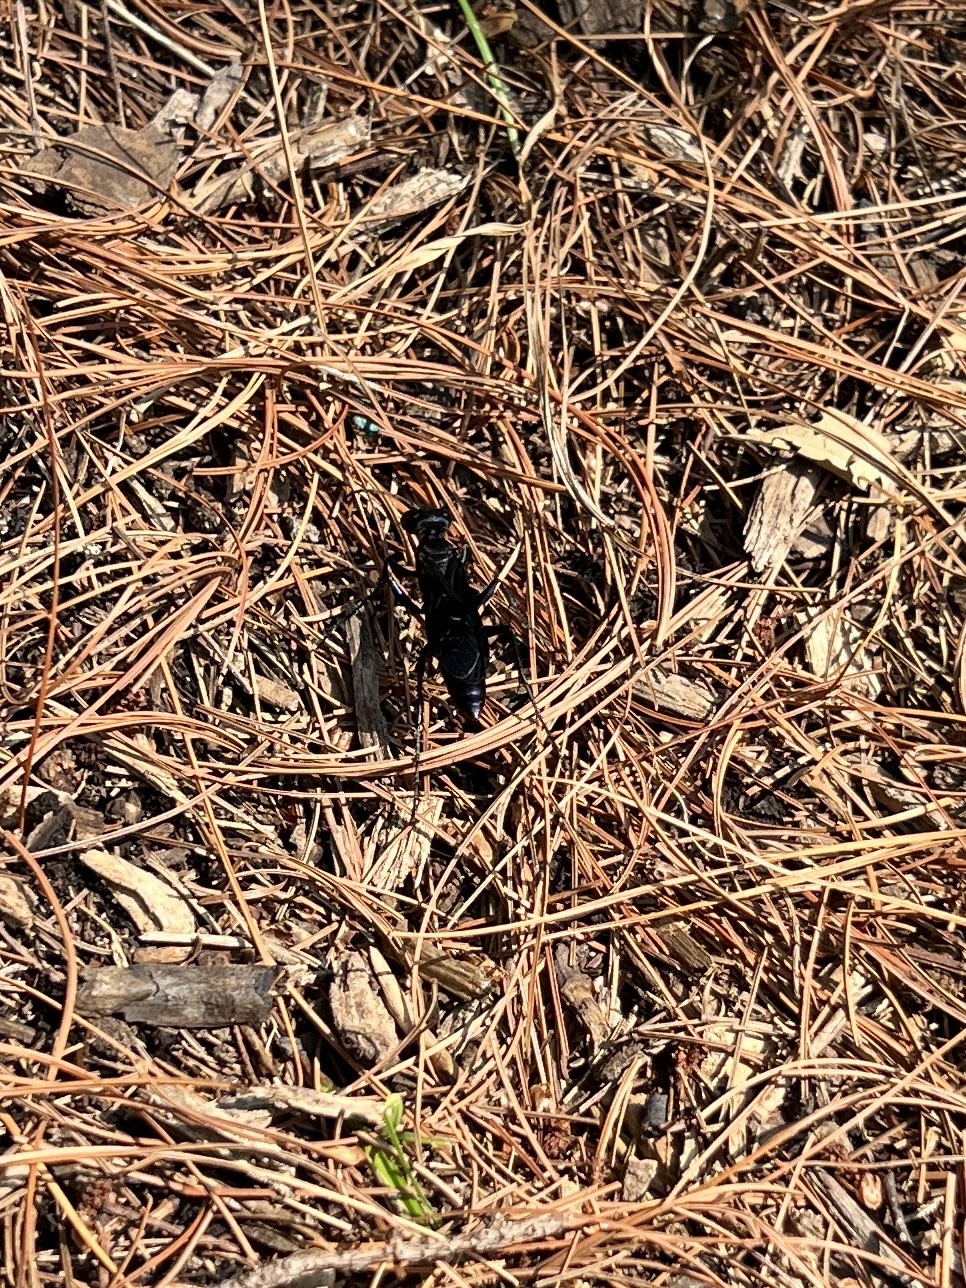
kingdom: Animalia
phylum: Arthropoda
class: Insecta
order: Hymenoptera
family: Sphecidae
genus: Chlorion
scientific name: Chlorion aerarium
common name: Steel-blue cricket hunter
